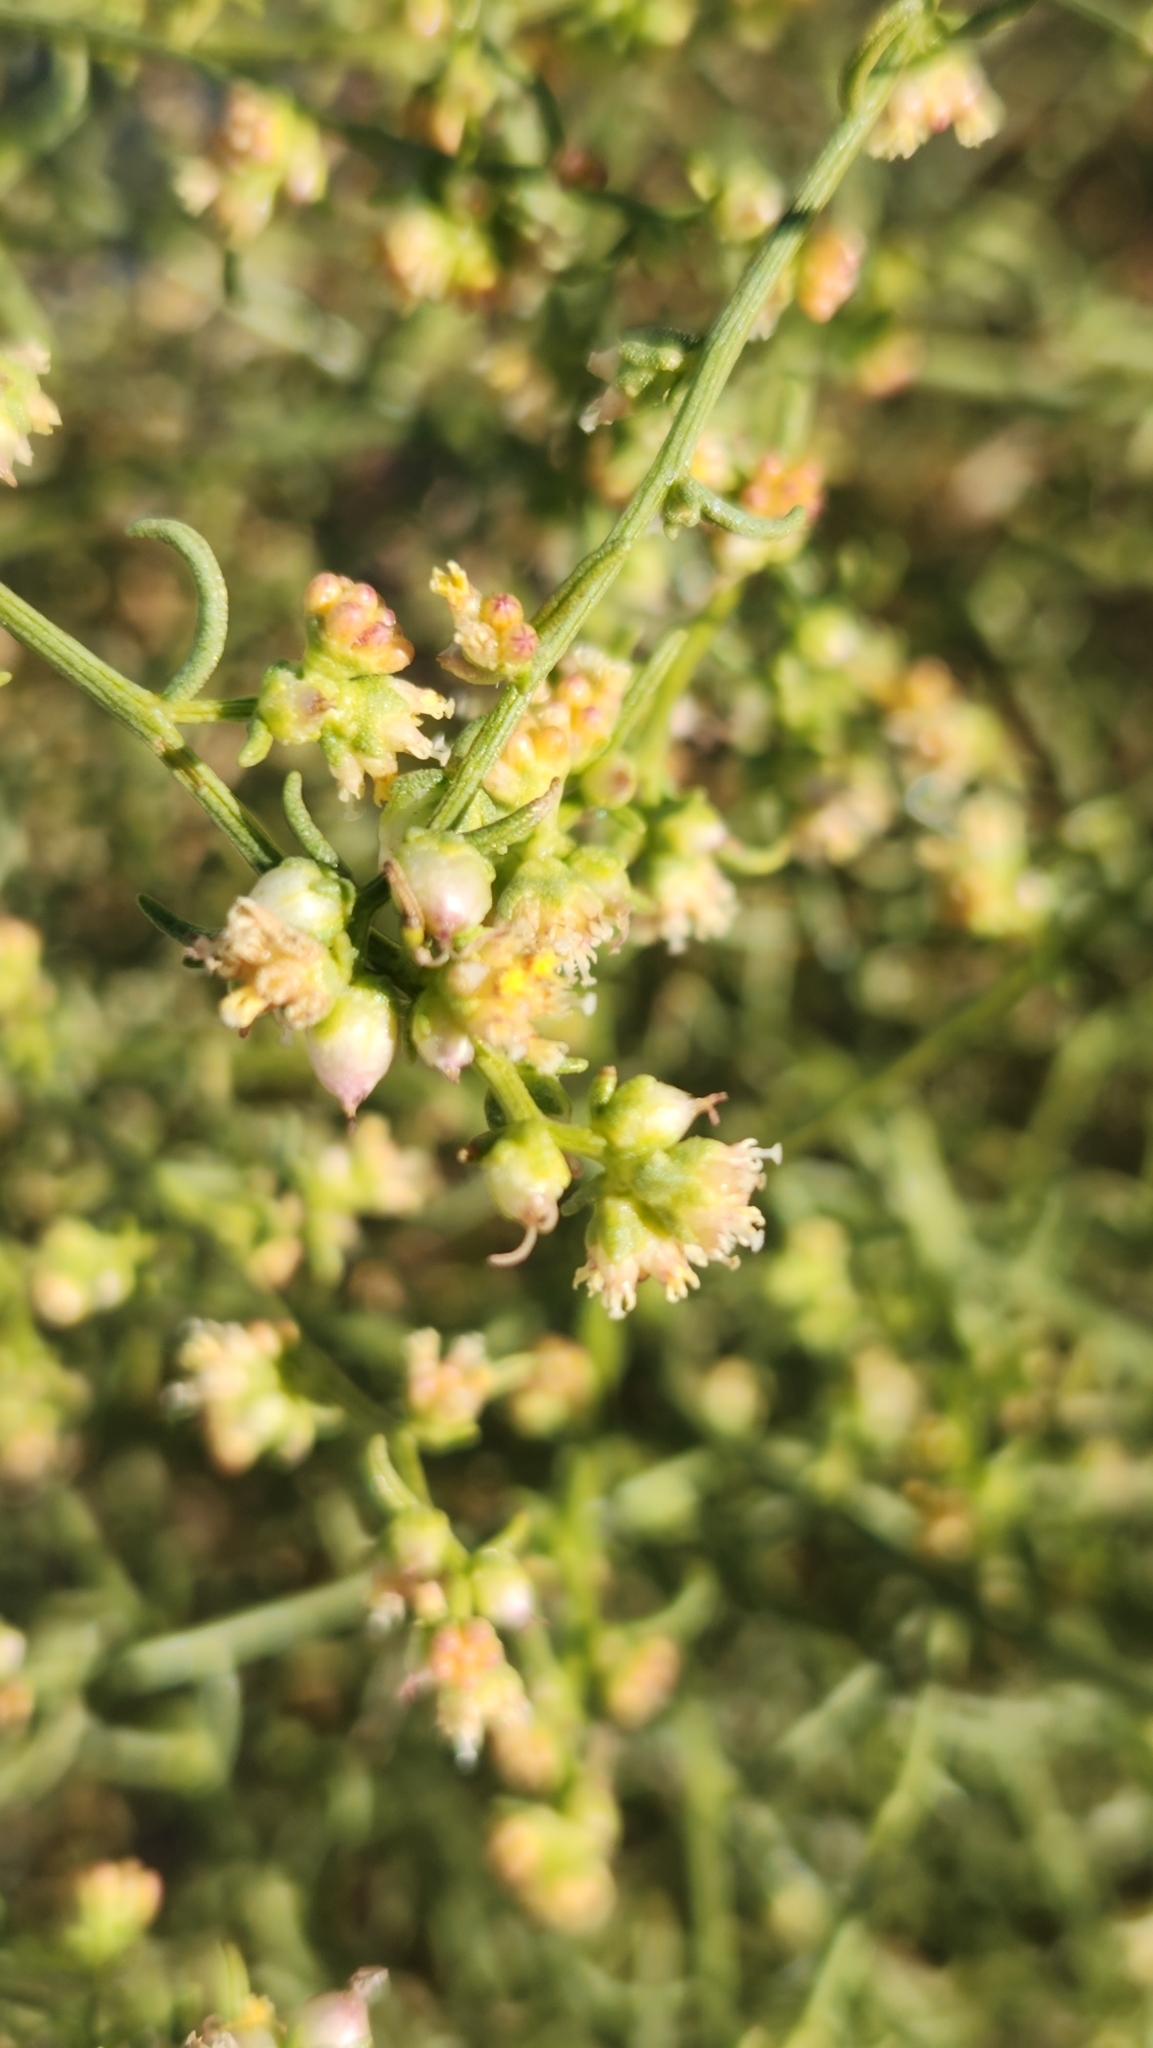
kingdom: Plantae
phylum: Tracheophyta
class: Magnoliopsida
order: Asterales
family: Asteraceae
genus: Ambrosia
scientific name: Ambrosia salsola
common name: Burrobrush
